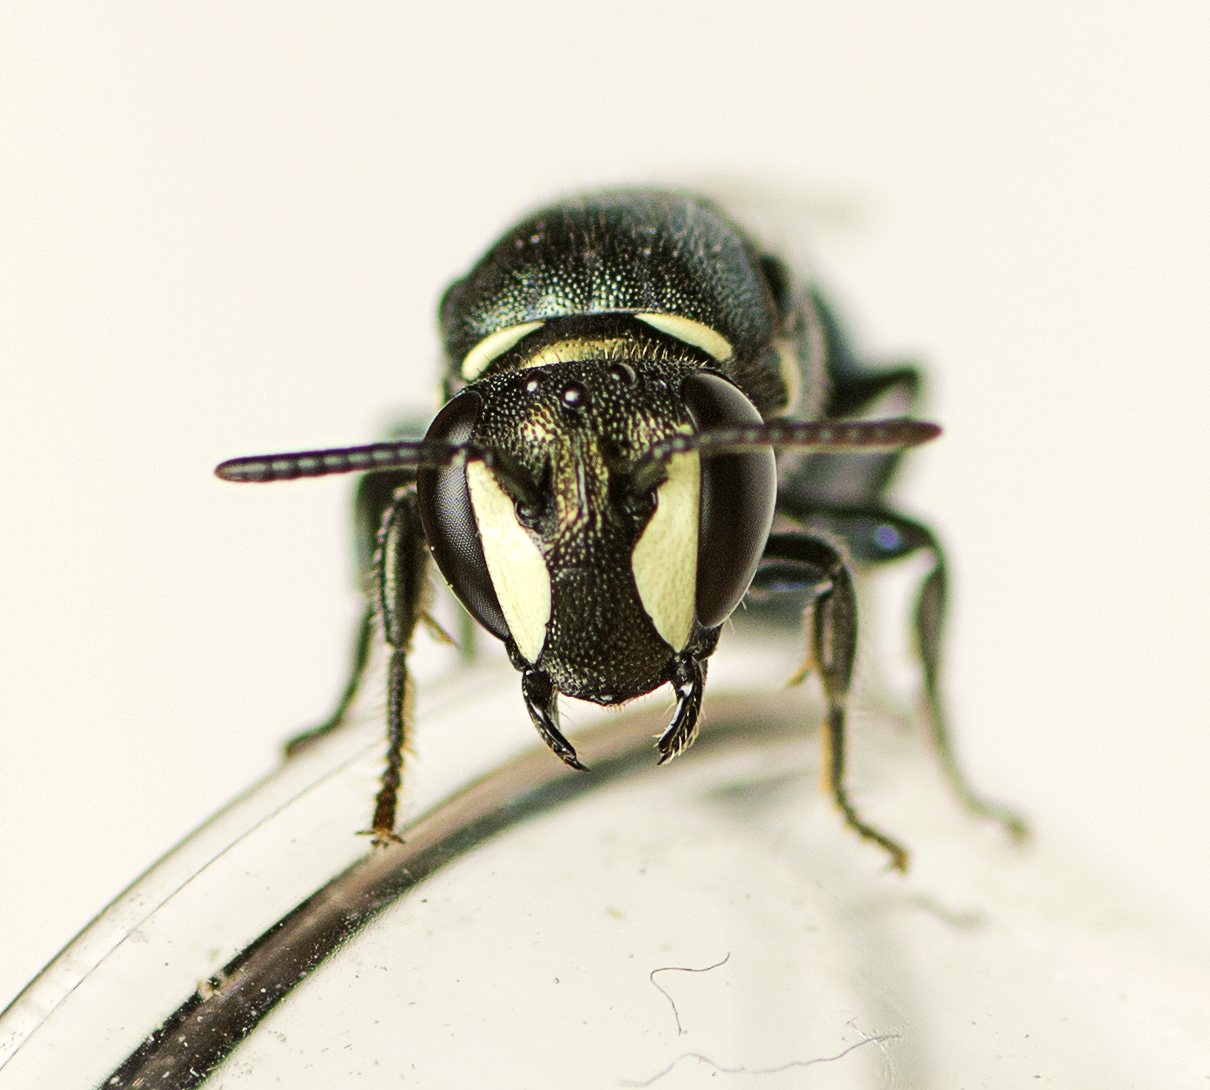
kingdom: Animalia
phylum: Arthropoda
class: Insecta
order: Hymenoptera
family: Colletidae
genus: Hylaeus
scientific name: Hylaeus disjunctus
